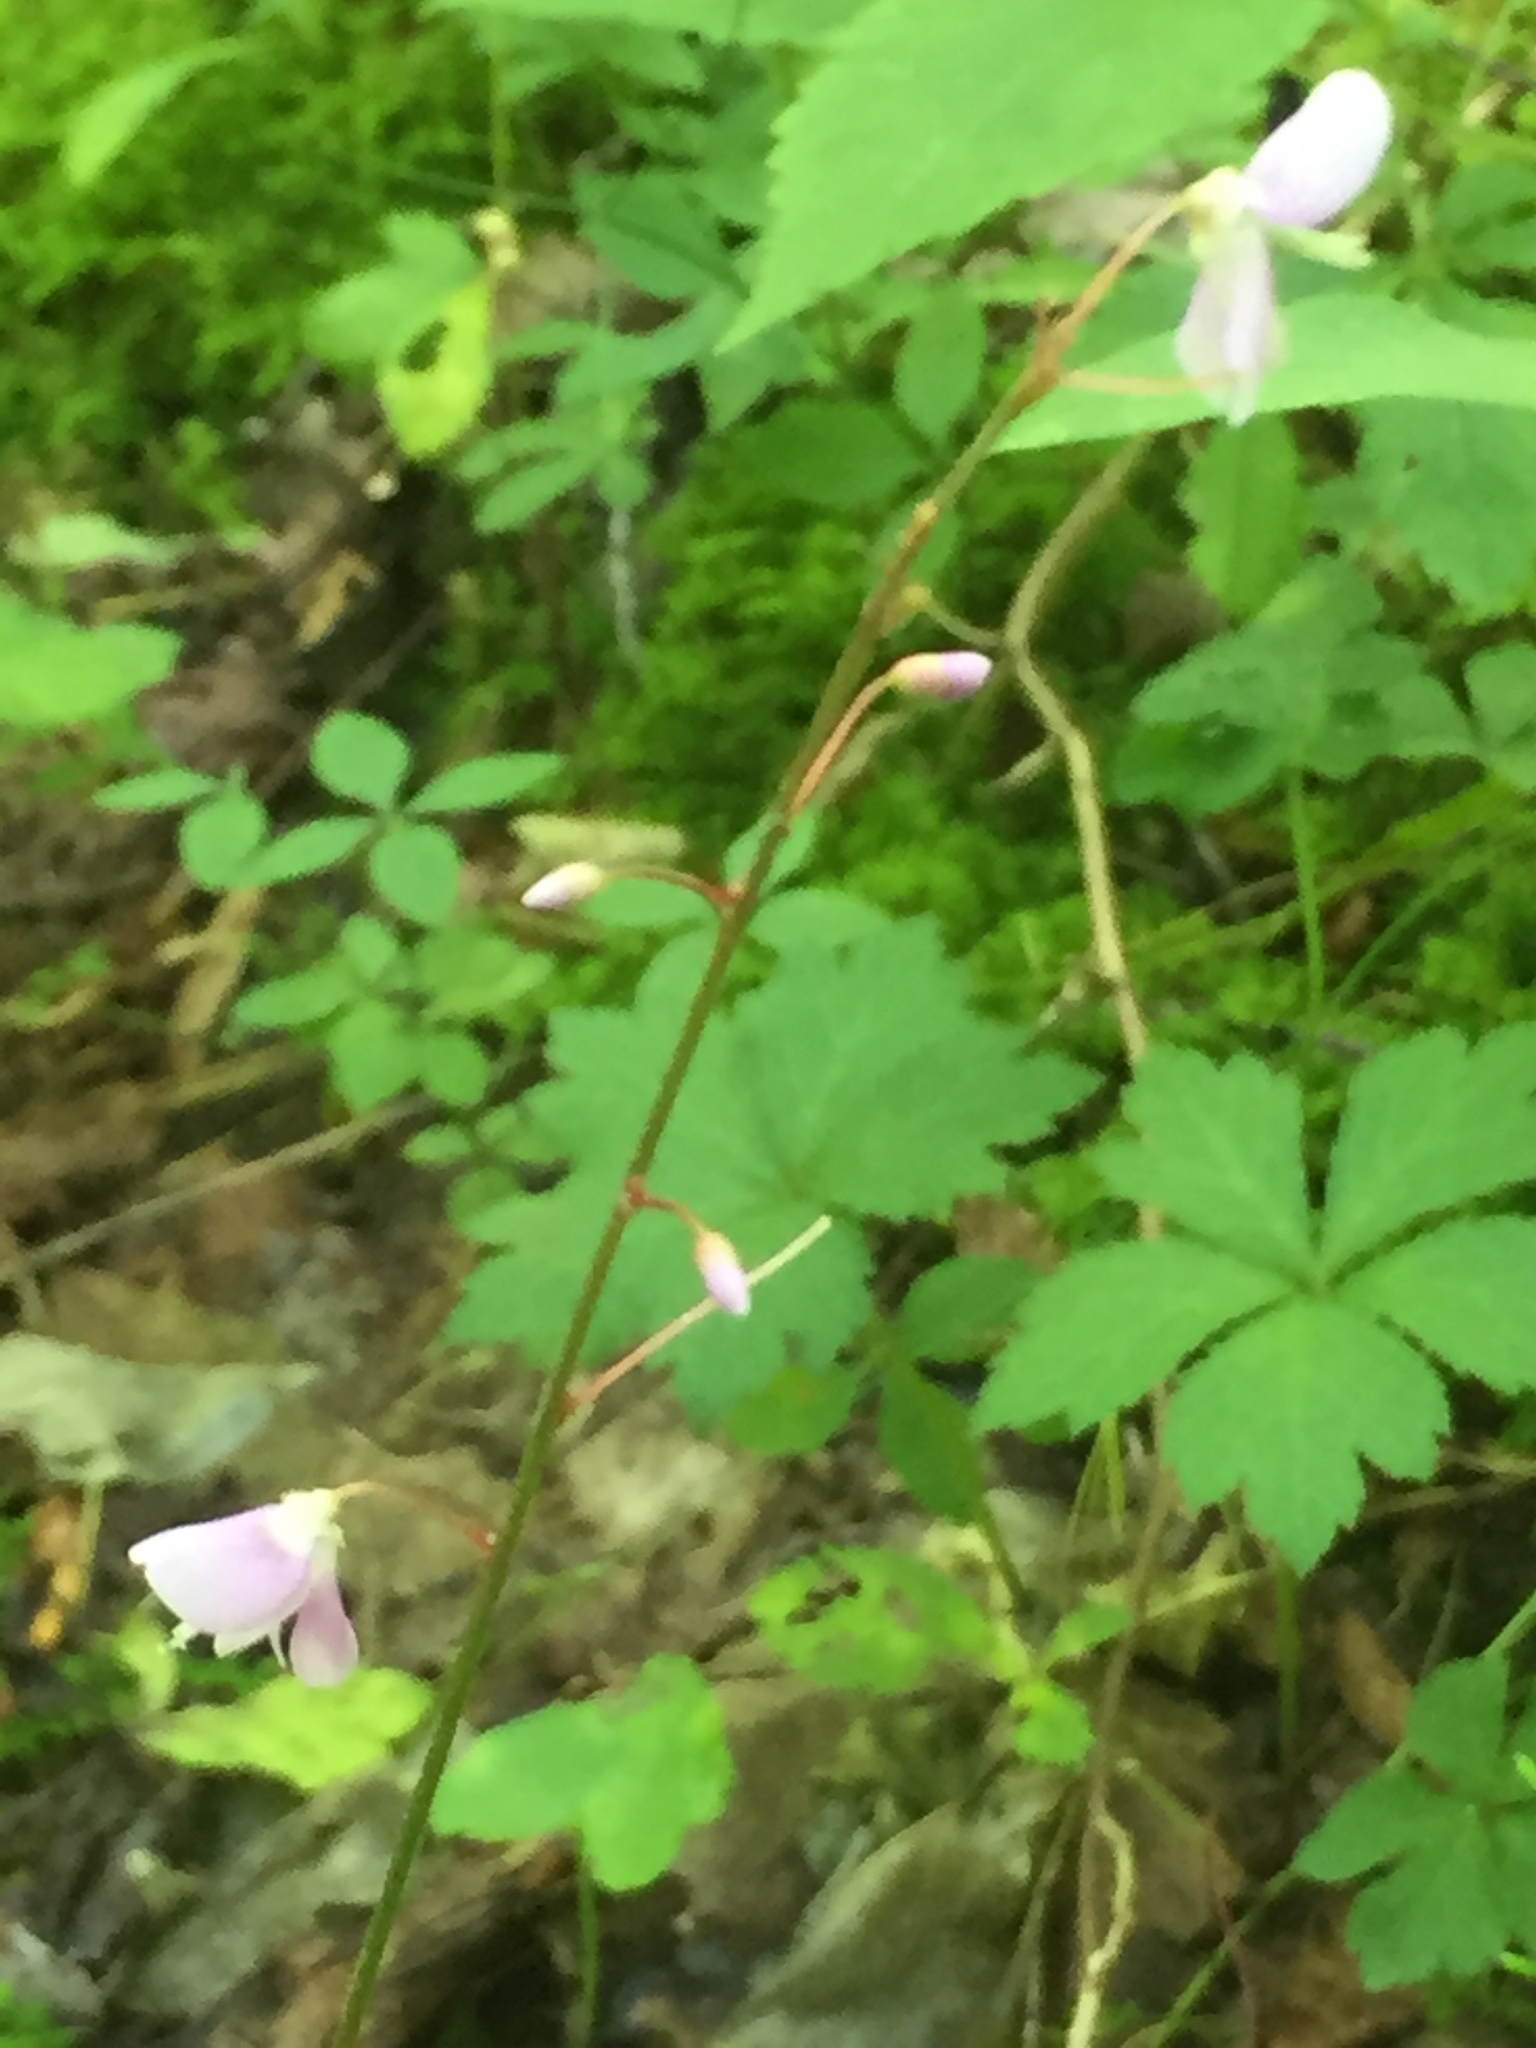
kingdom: Plantae
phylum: Tracheophyta
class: Magnoliopsida
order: Fabales
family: Fabaceae
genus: Hylodesmum
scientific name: Hylodesmum nudiflorum
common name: Bare-stemmed tick-trefoil
